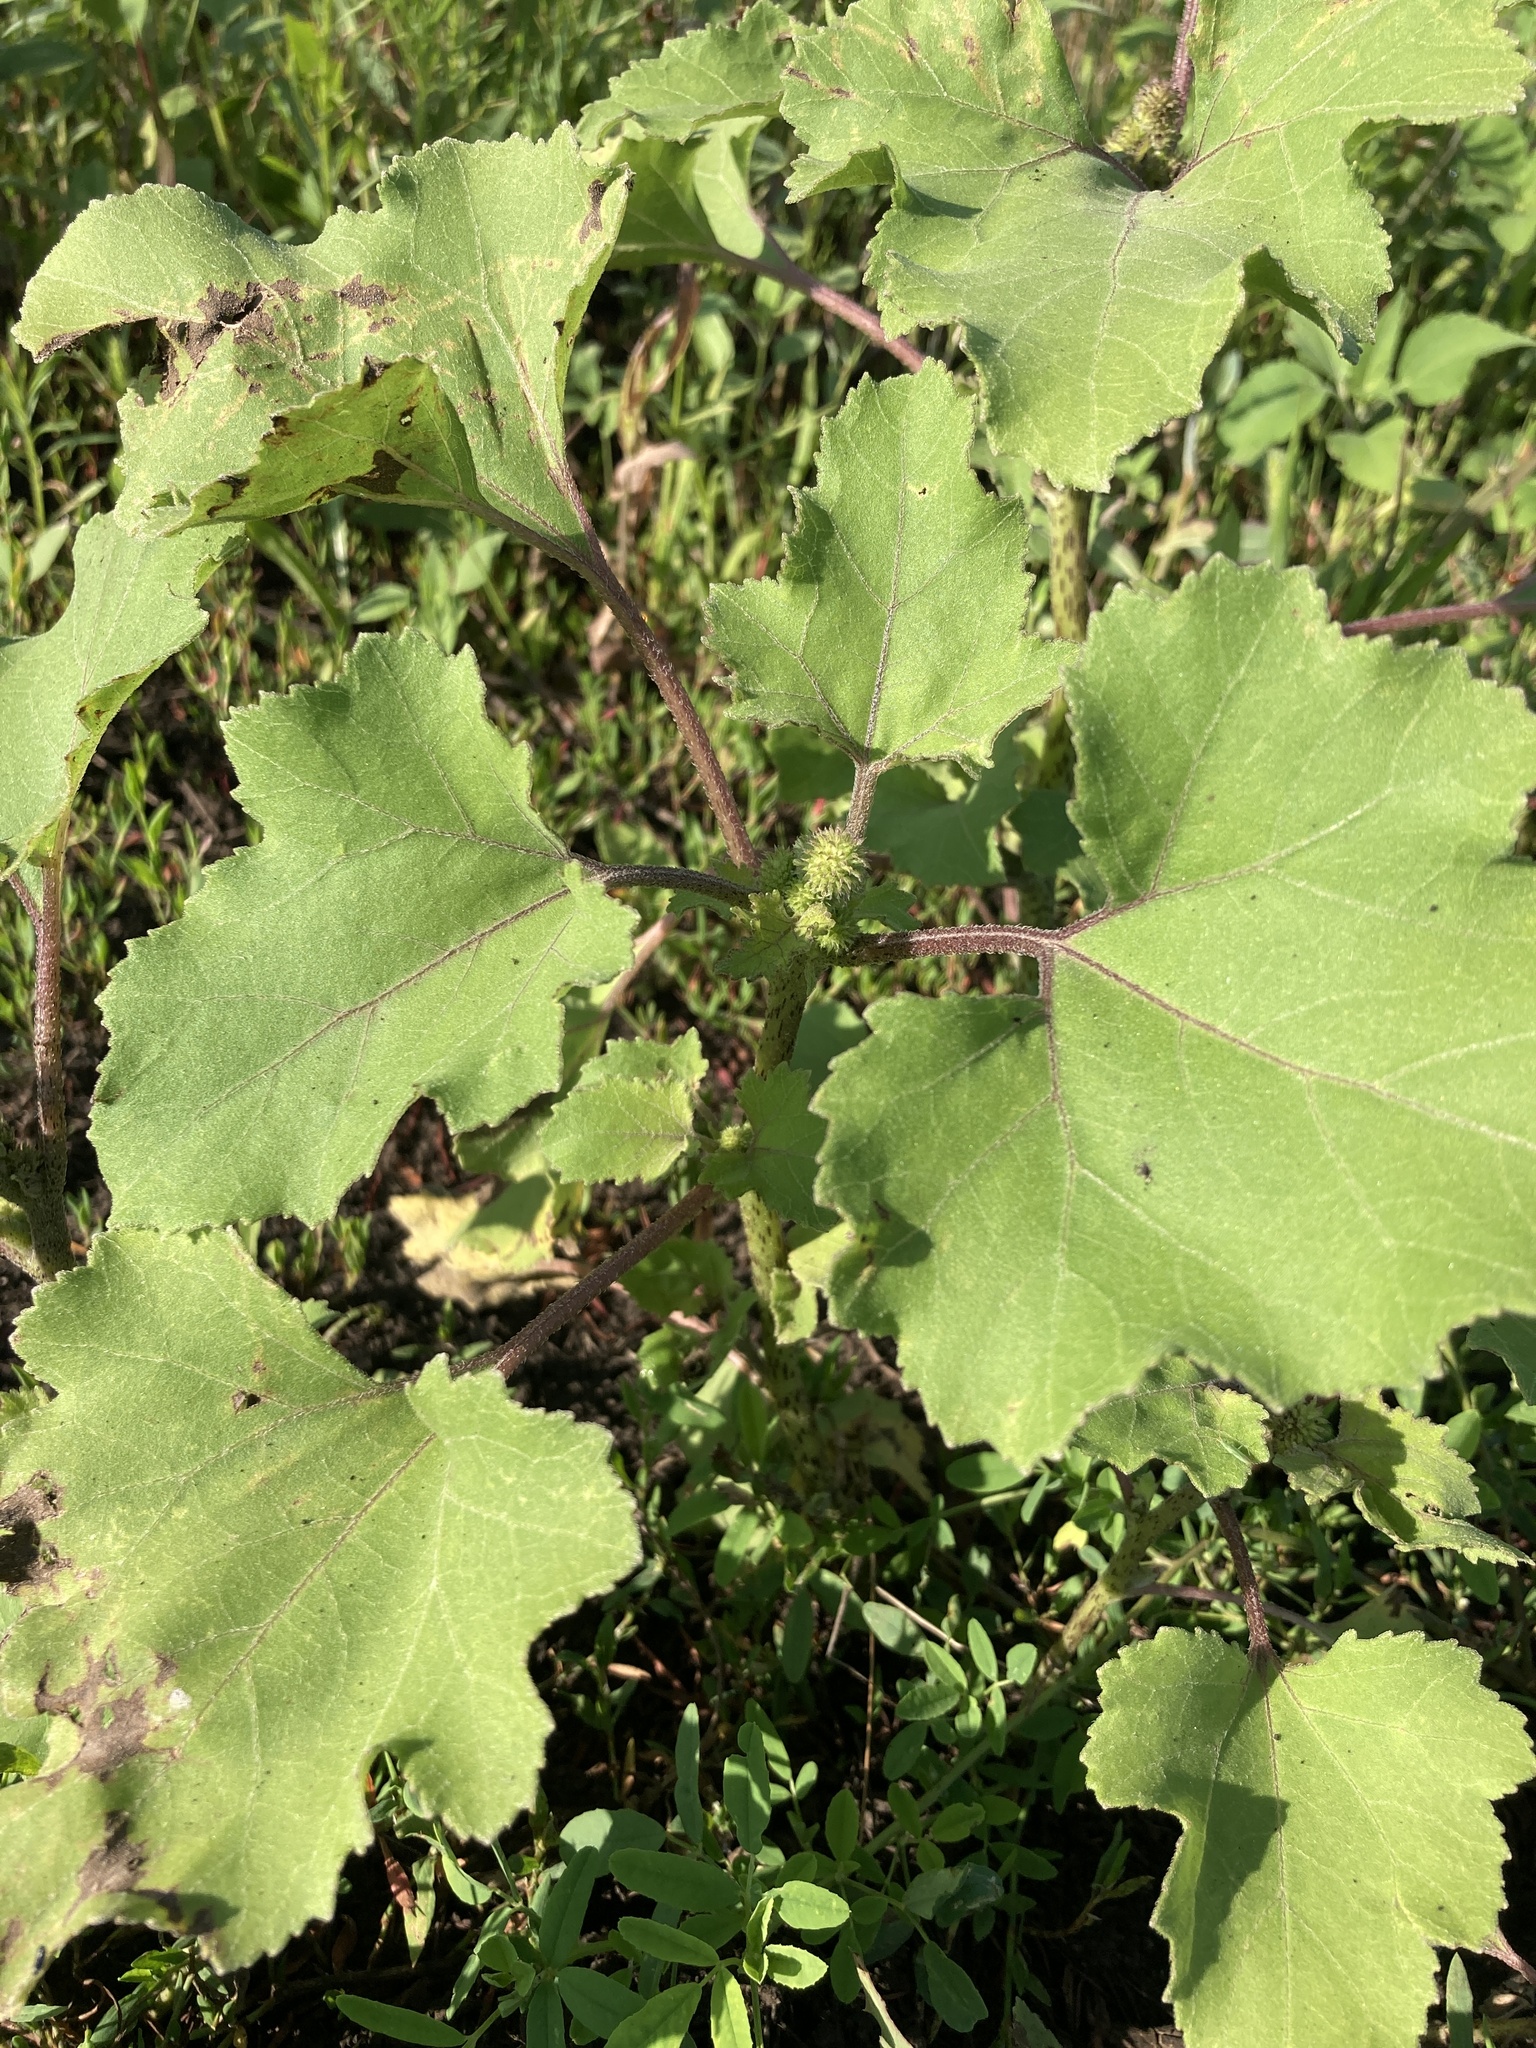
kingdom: Plantae
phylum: Tracheophyta
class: Magnoliopsida
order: Asterales
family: Asteraceae
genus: Xanthium
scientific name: Xanthium orientale
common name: Californian burr
